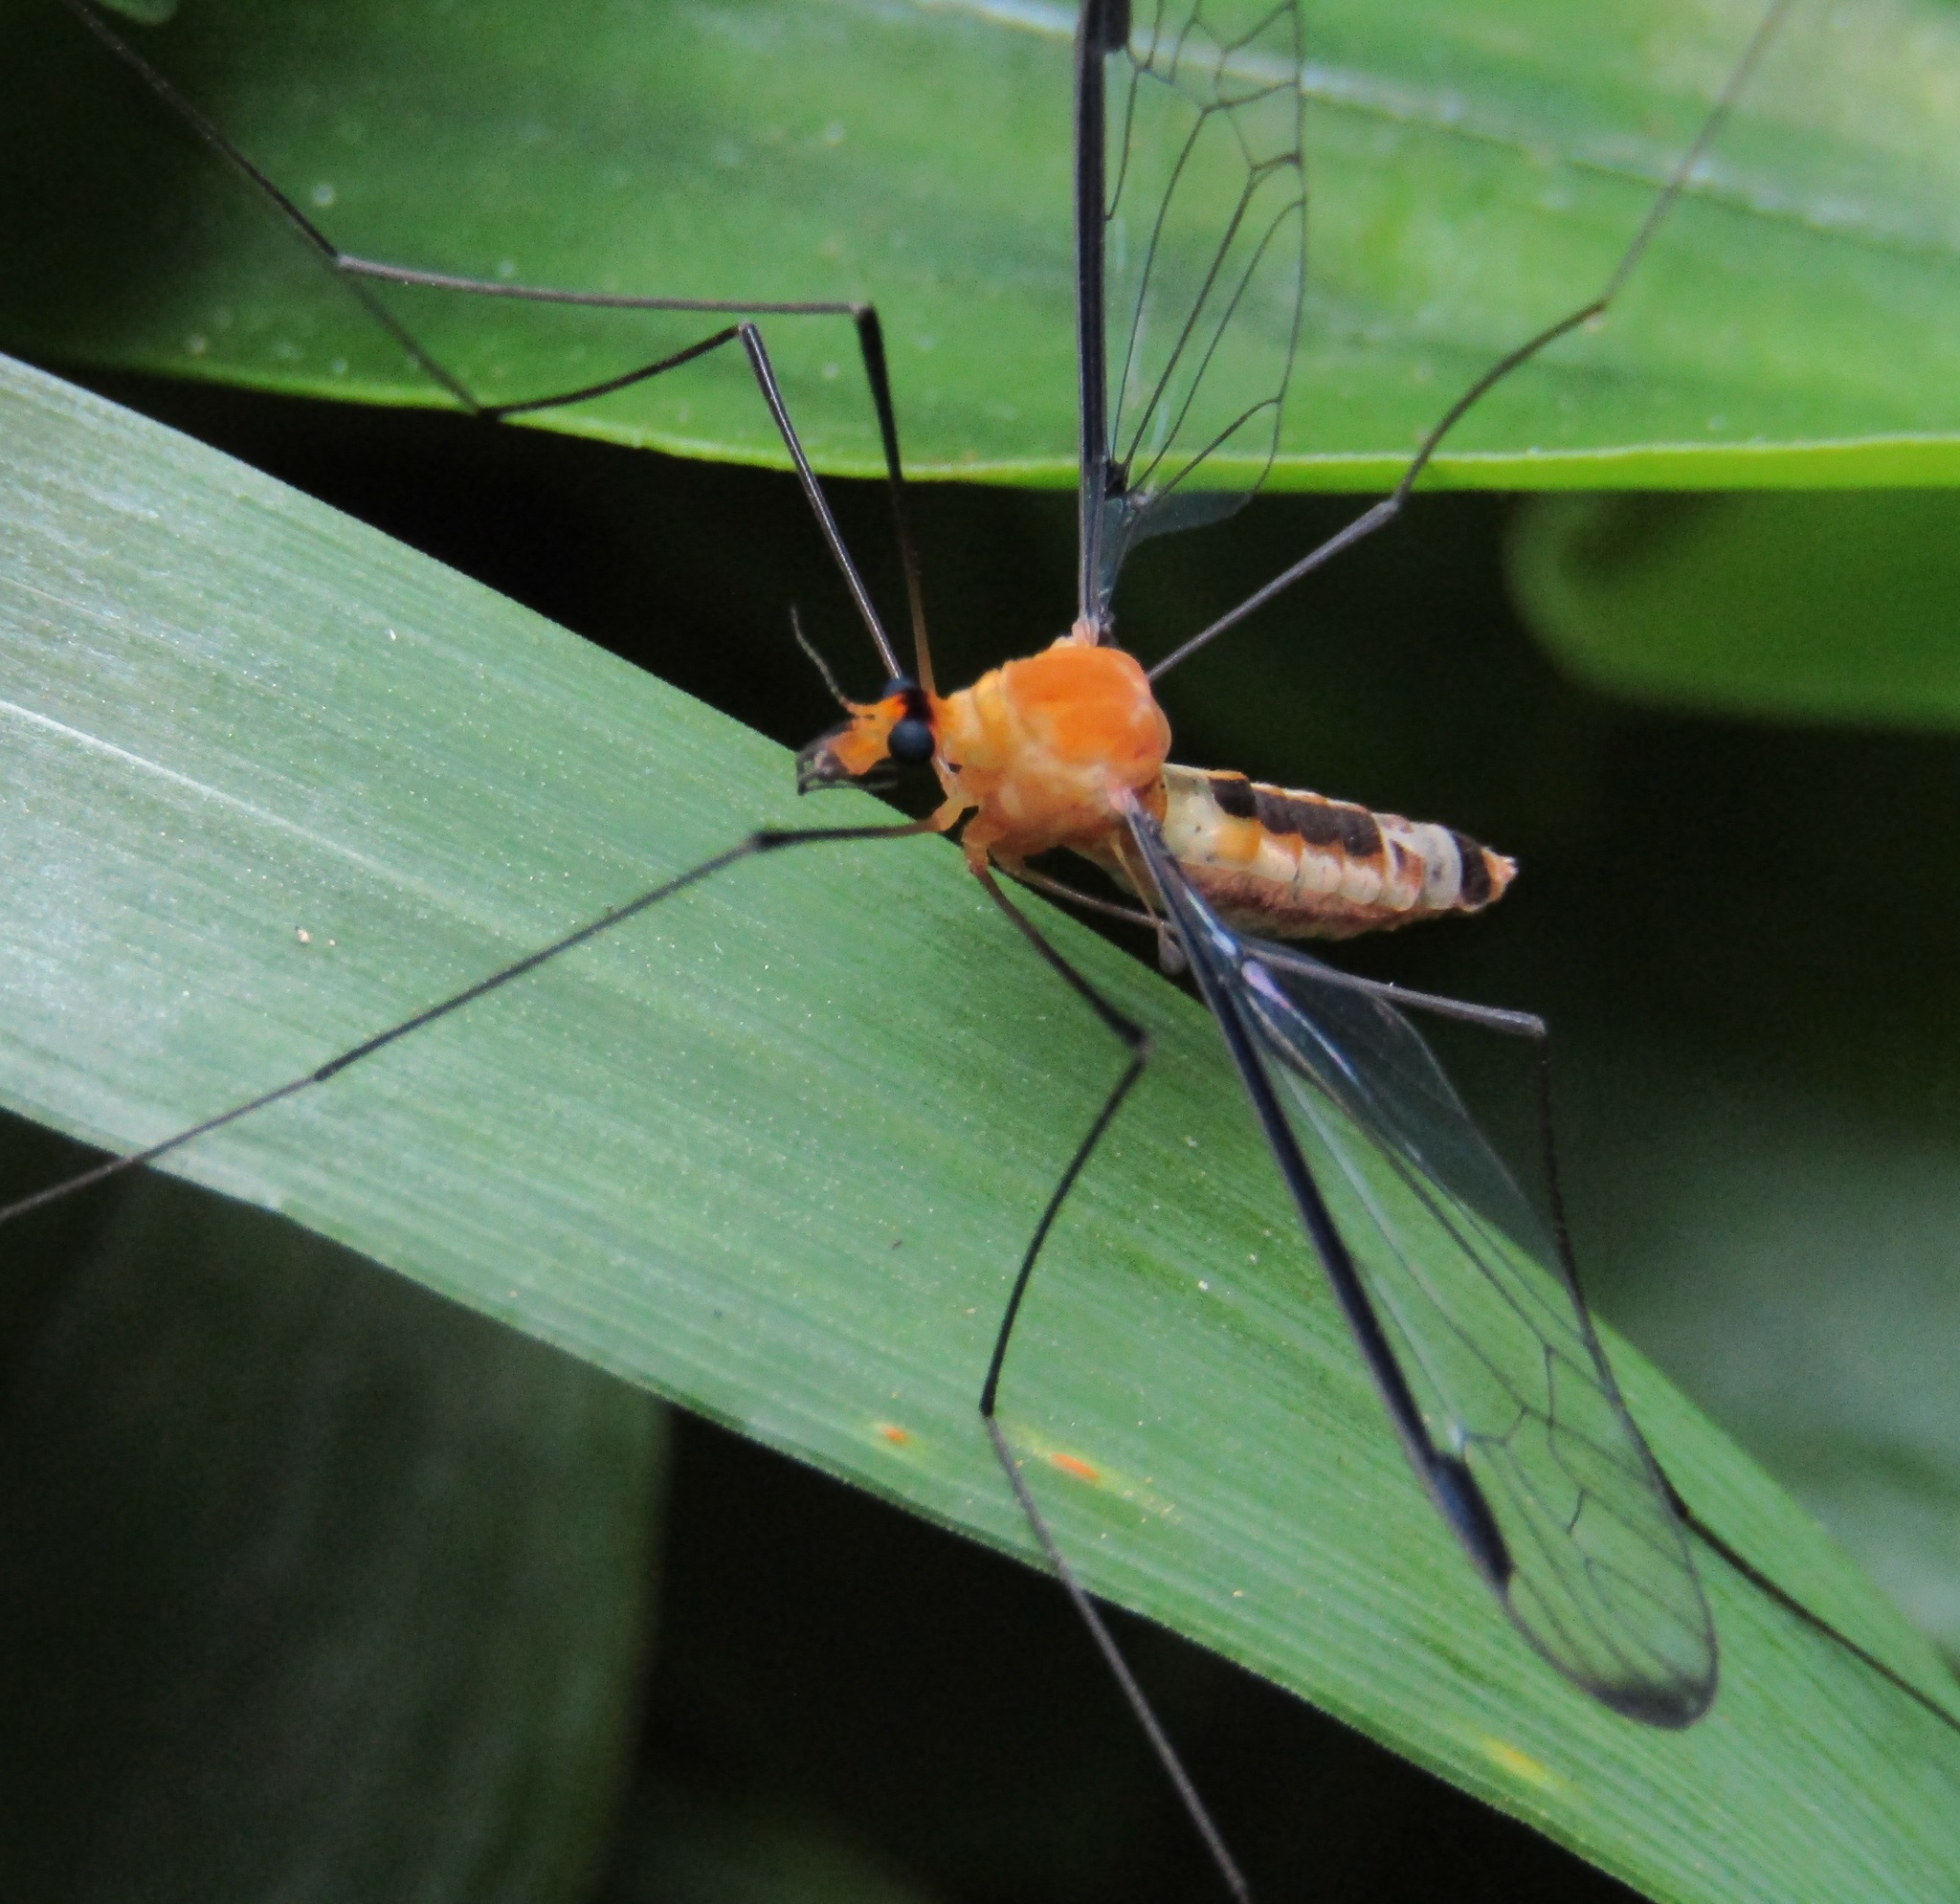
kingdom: Animalia
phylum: Arthropoda
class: Insecta
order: Diptera
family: Tipulidae
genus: Aurotipula
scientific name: Aurotipula
